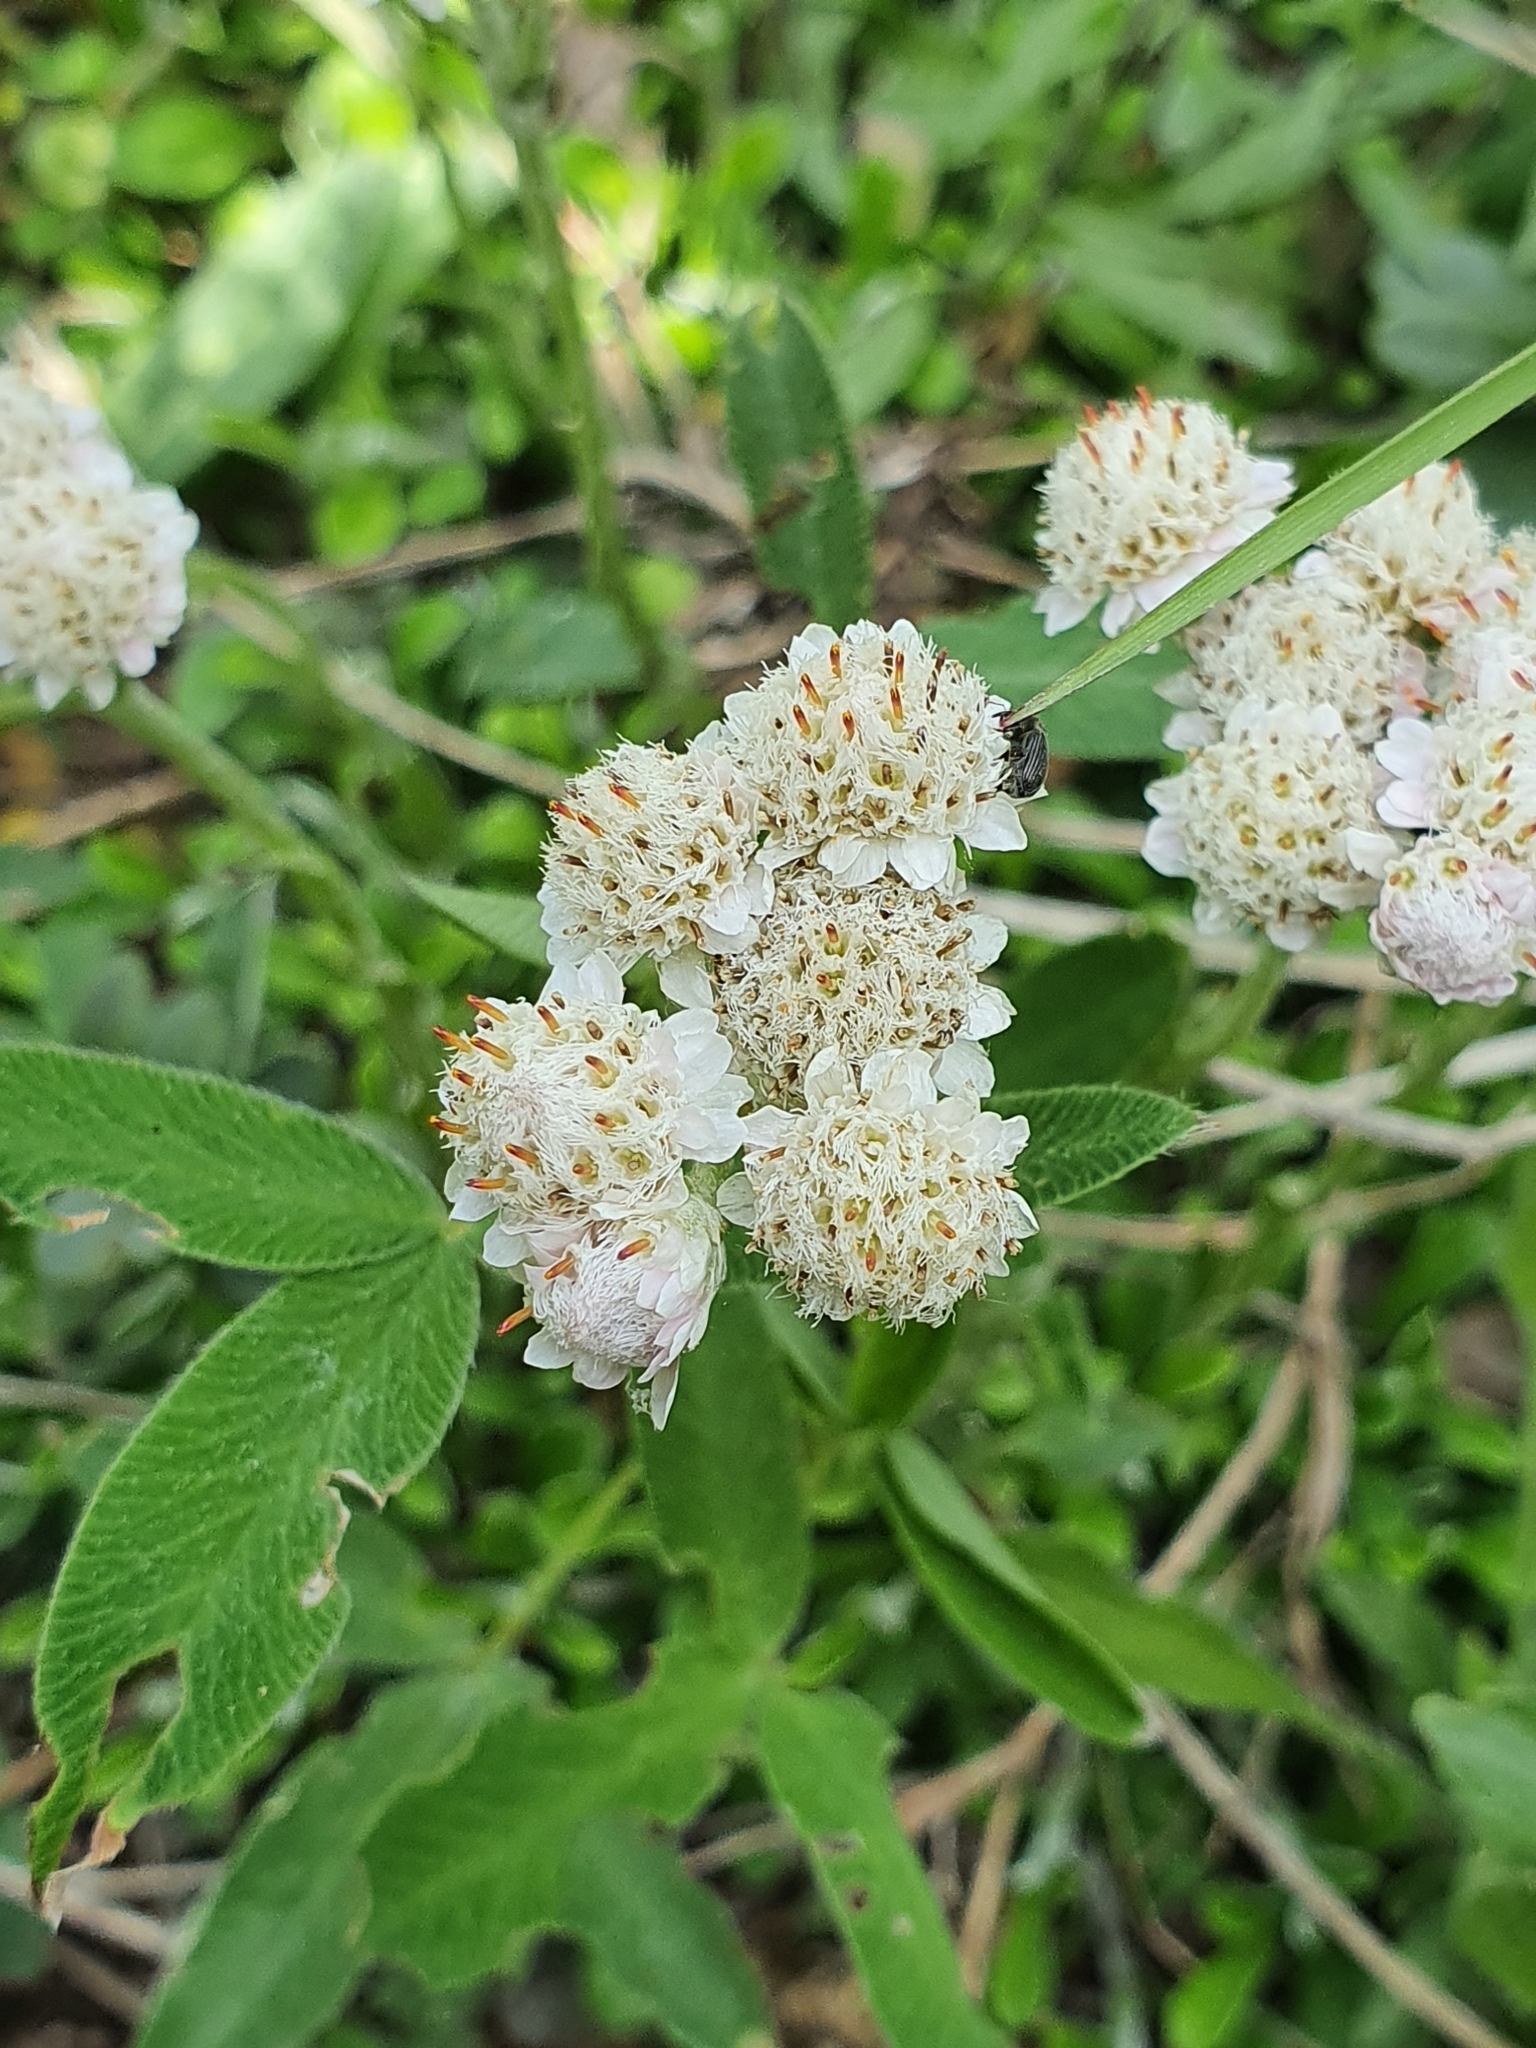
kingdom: Plantae
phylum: Tracheophyta
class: Magnoliopsida
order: Asterales
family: Asteraceae
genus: Antennaria
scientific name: Antennaria dioica
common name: Mountain everlasting
